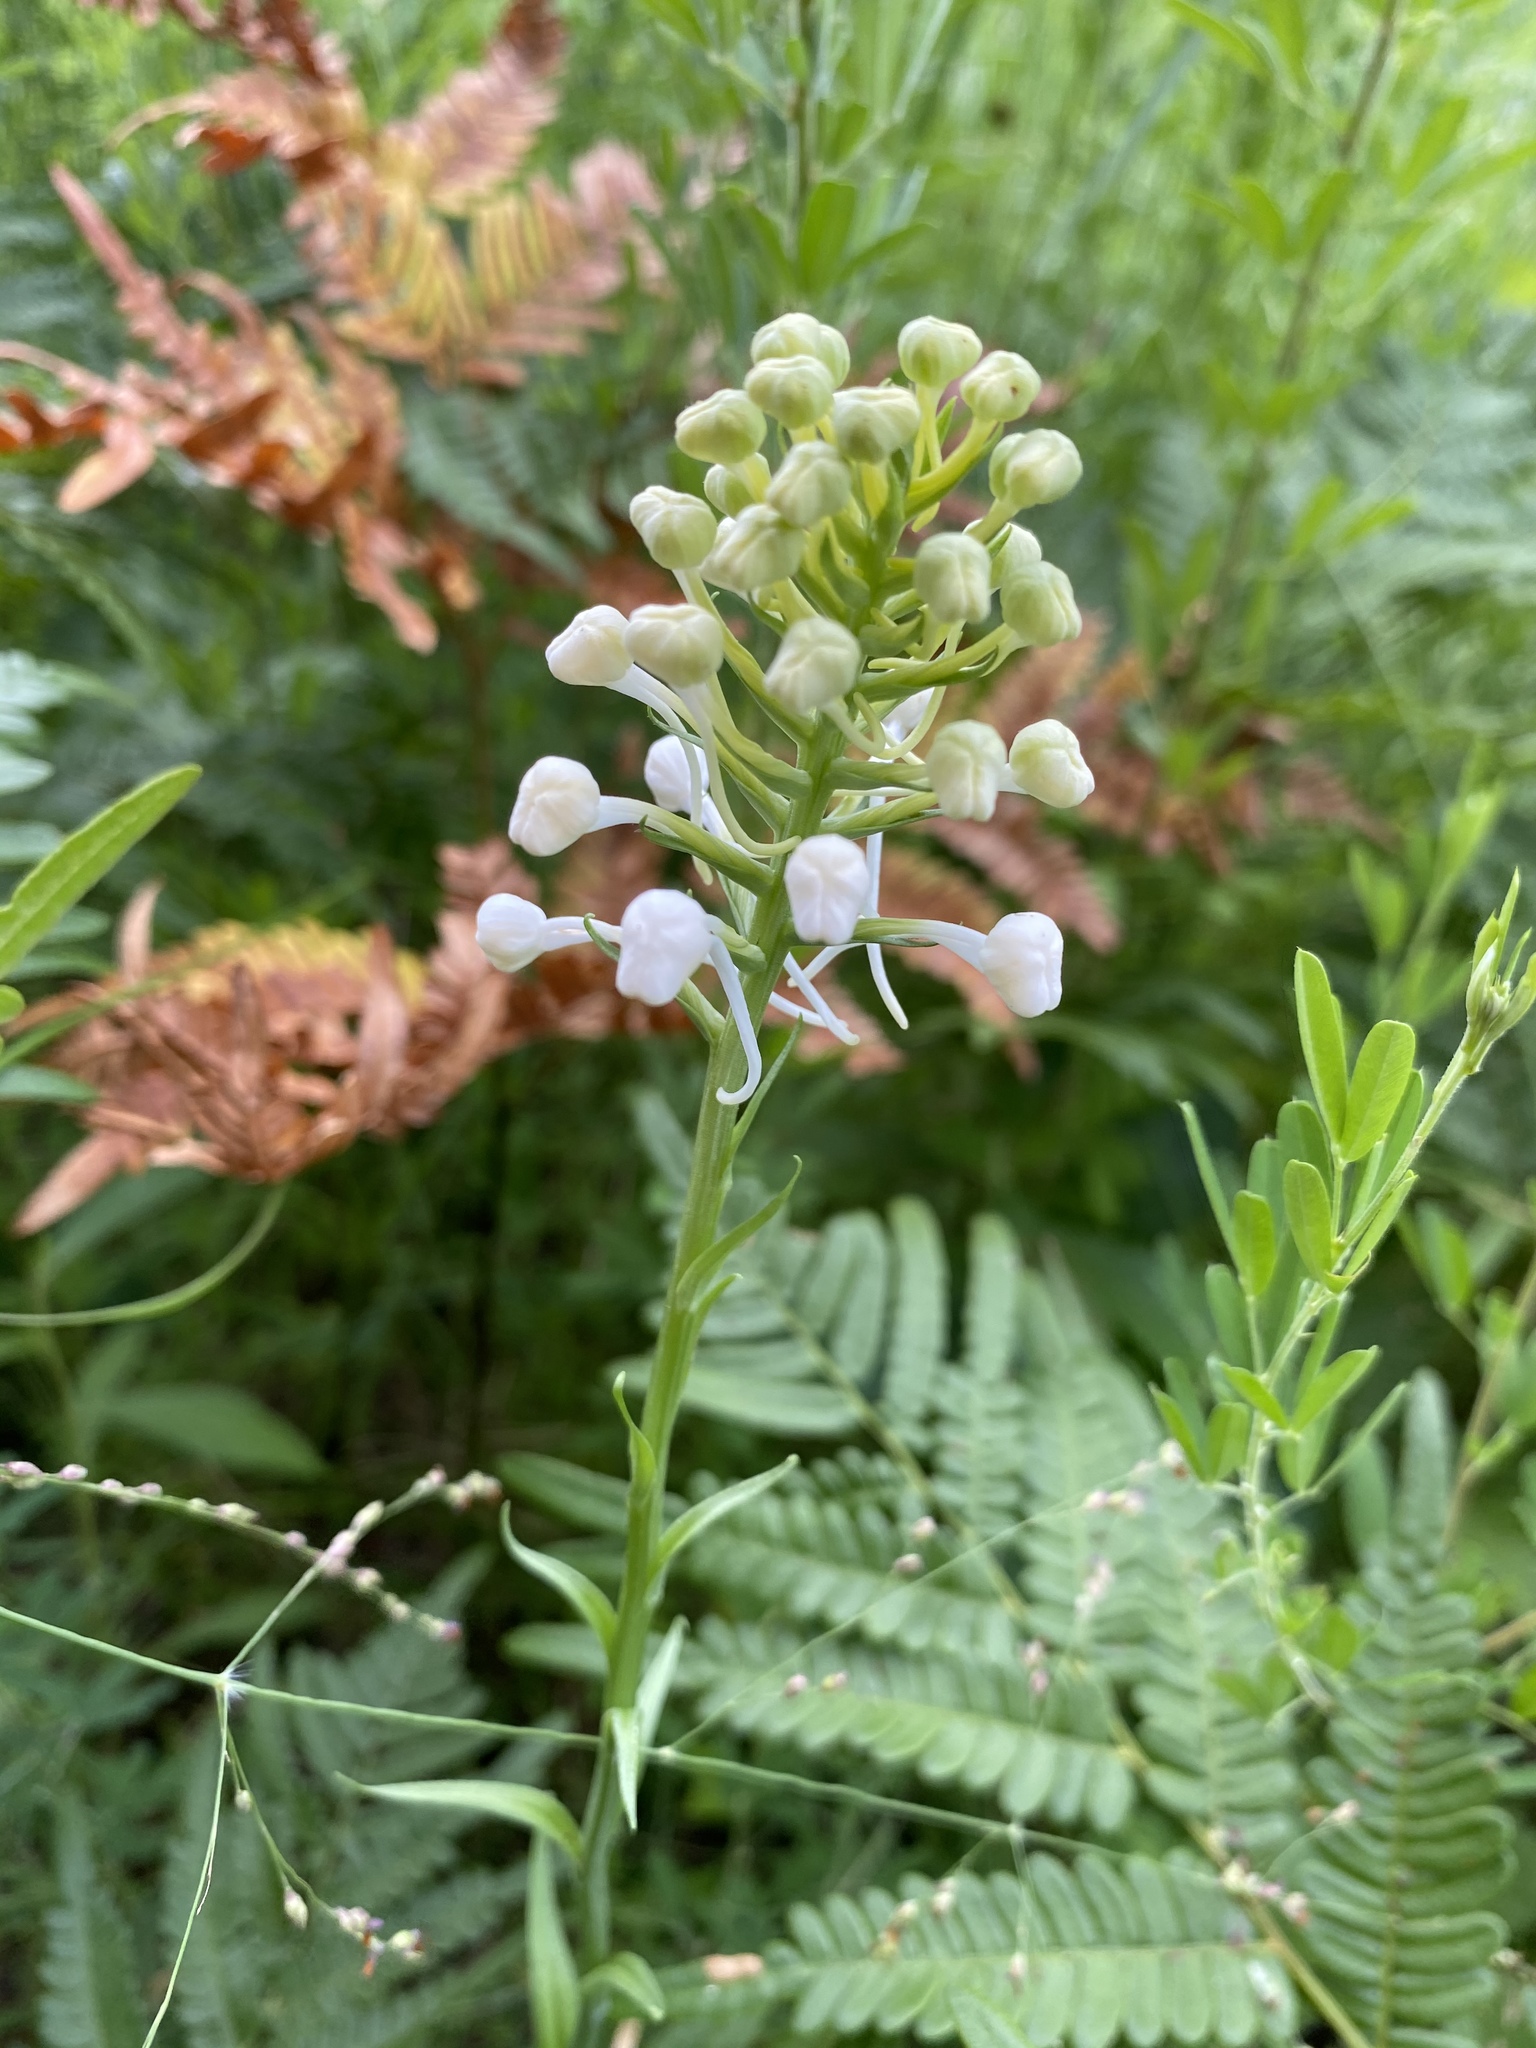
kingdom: Plantae
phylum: Tracheophyta
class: Liliopsida
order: Asparagales
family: Orchidaceae
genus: Platanthera
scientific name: Platanthera blephariglottis
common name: White fringed orchid
